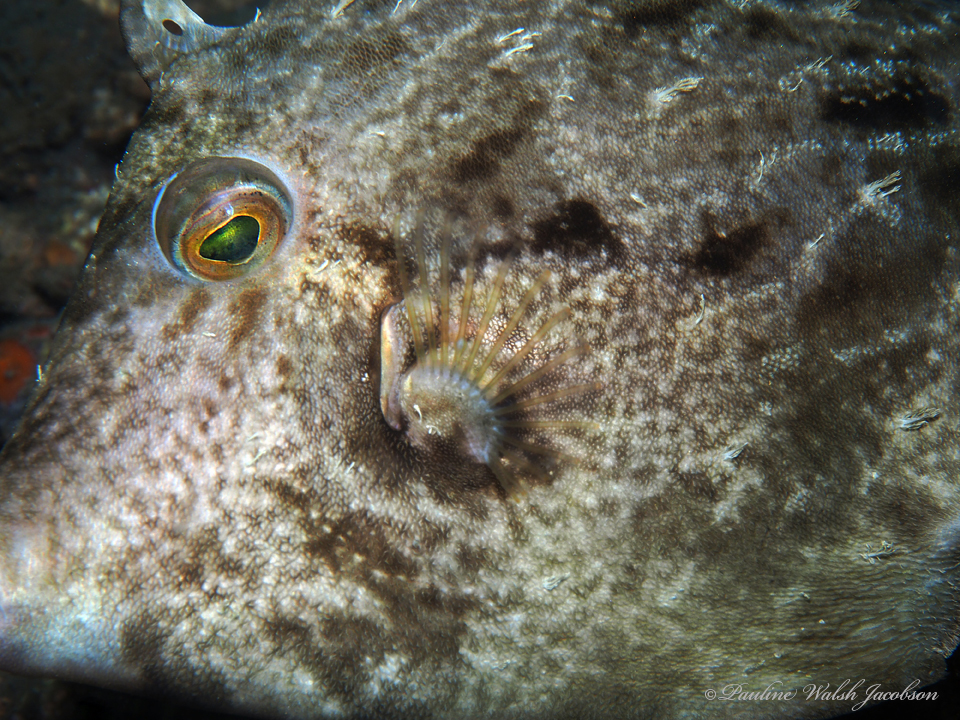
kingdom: Animalia
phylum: Chordata
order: Tetraodontiformes
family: Monacanthidae
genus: Stephanolepis
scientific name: Stephanolepis hispidus
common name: Planehead filefish
